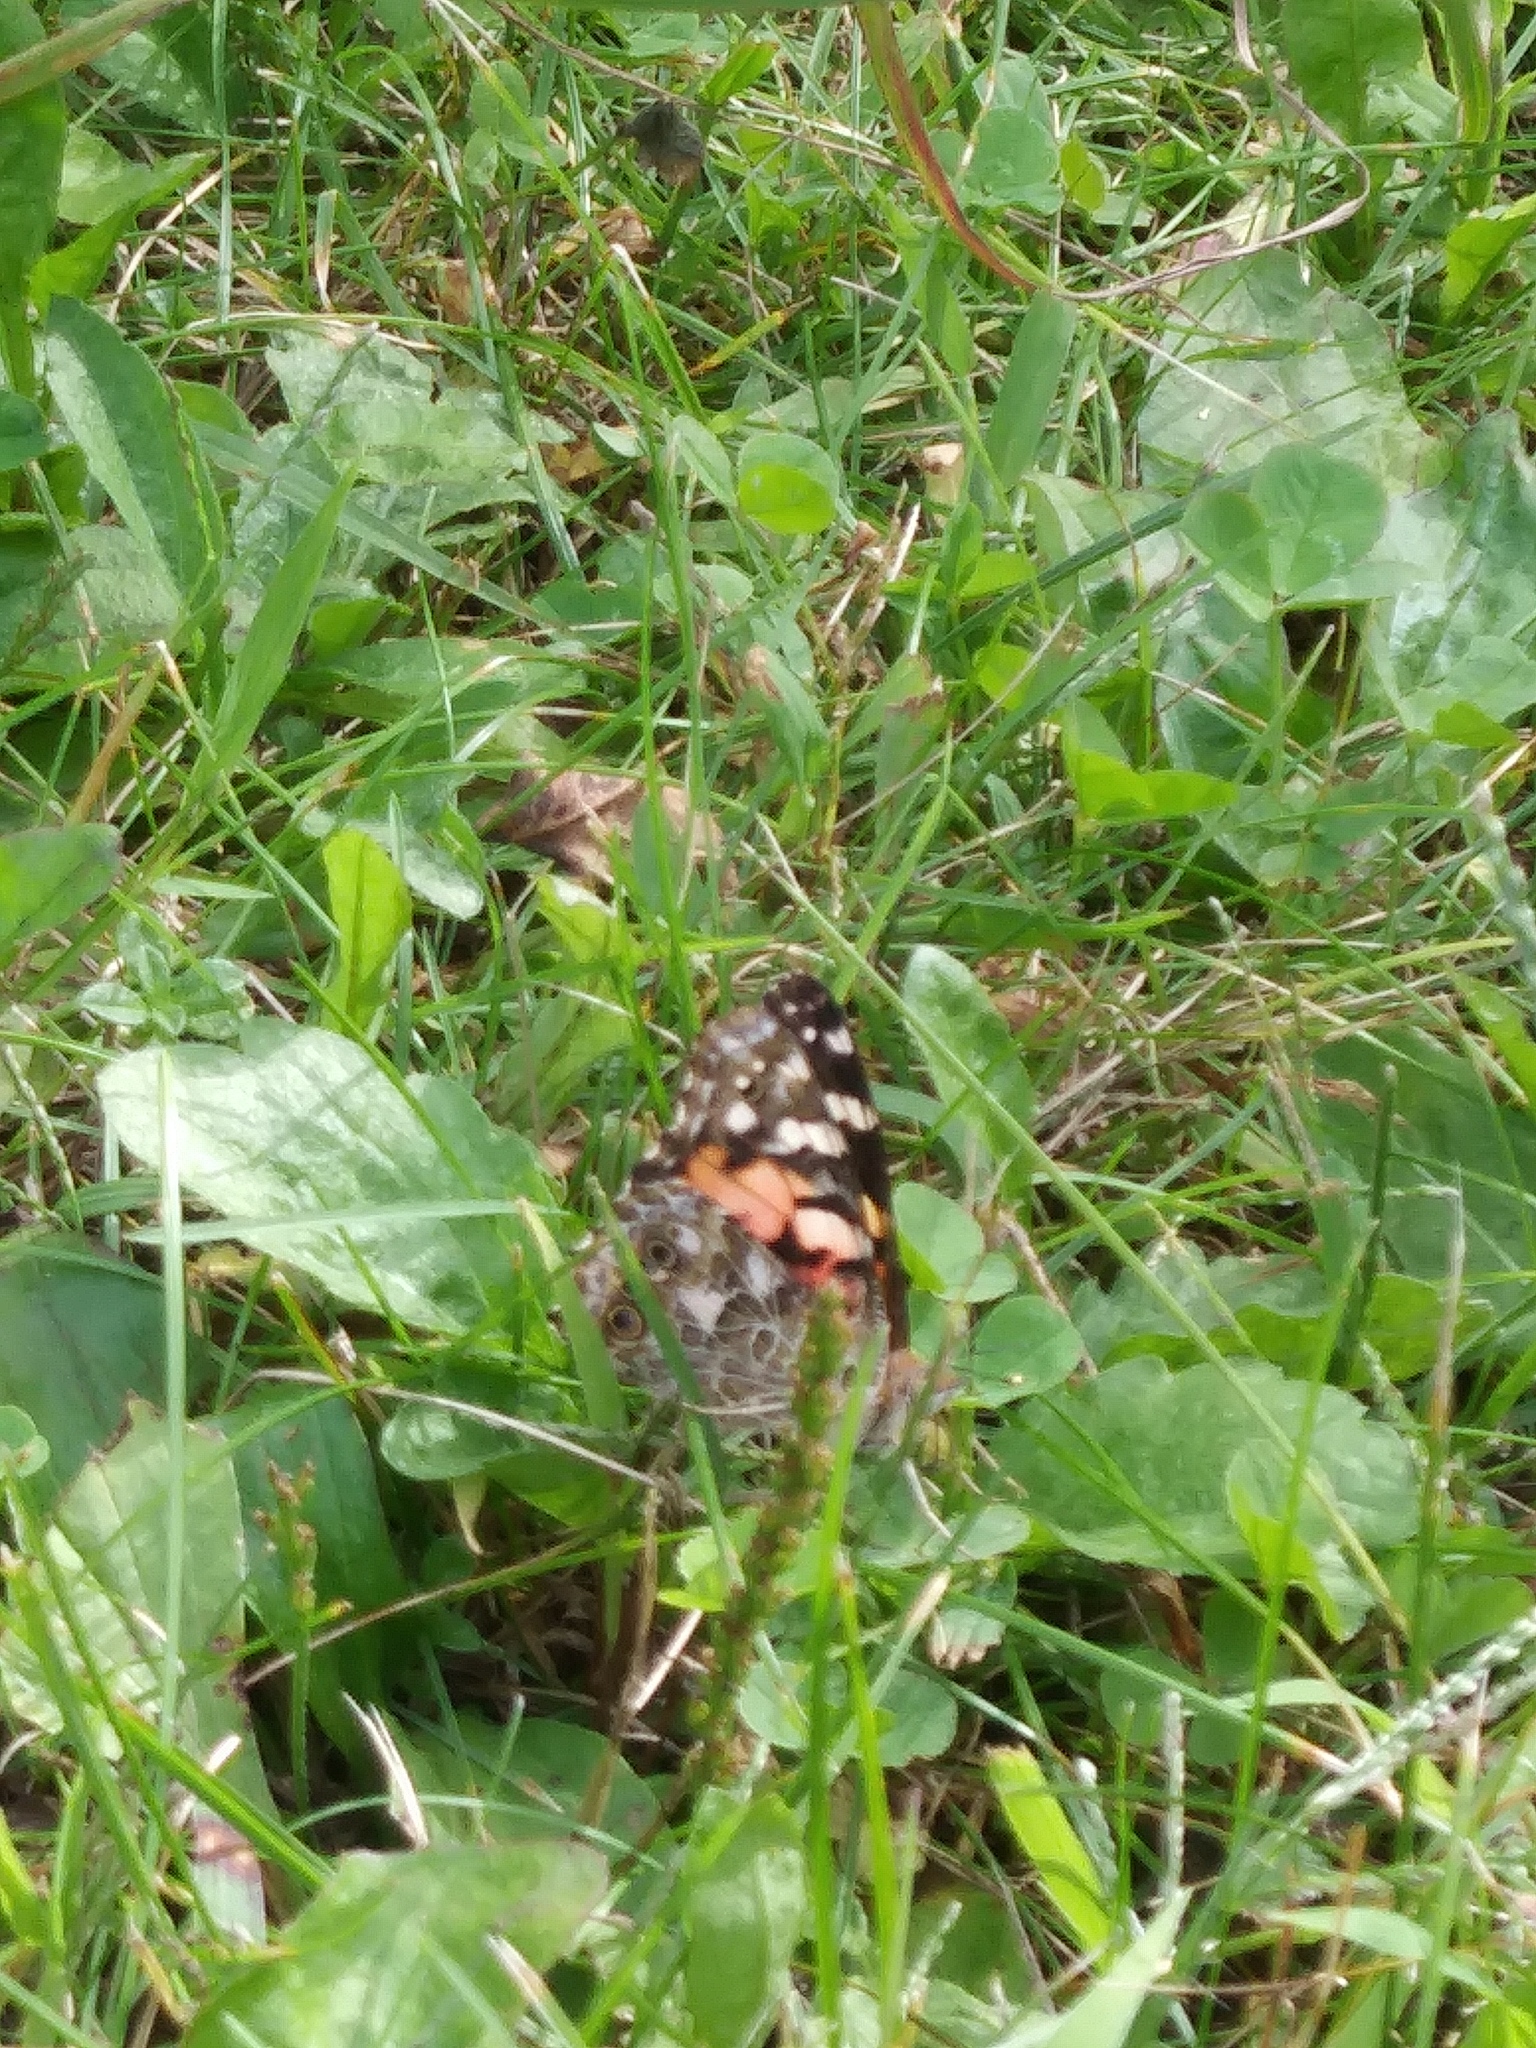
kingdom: Animalia
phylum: Arthropoda
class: Insecta
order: Lepidoptera
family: Nymphalidae
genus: Vanessa
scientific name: Vanessa cardui
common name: Painted lady
